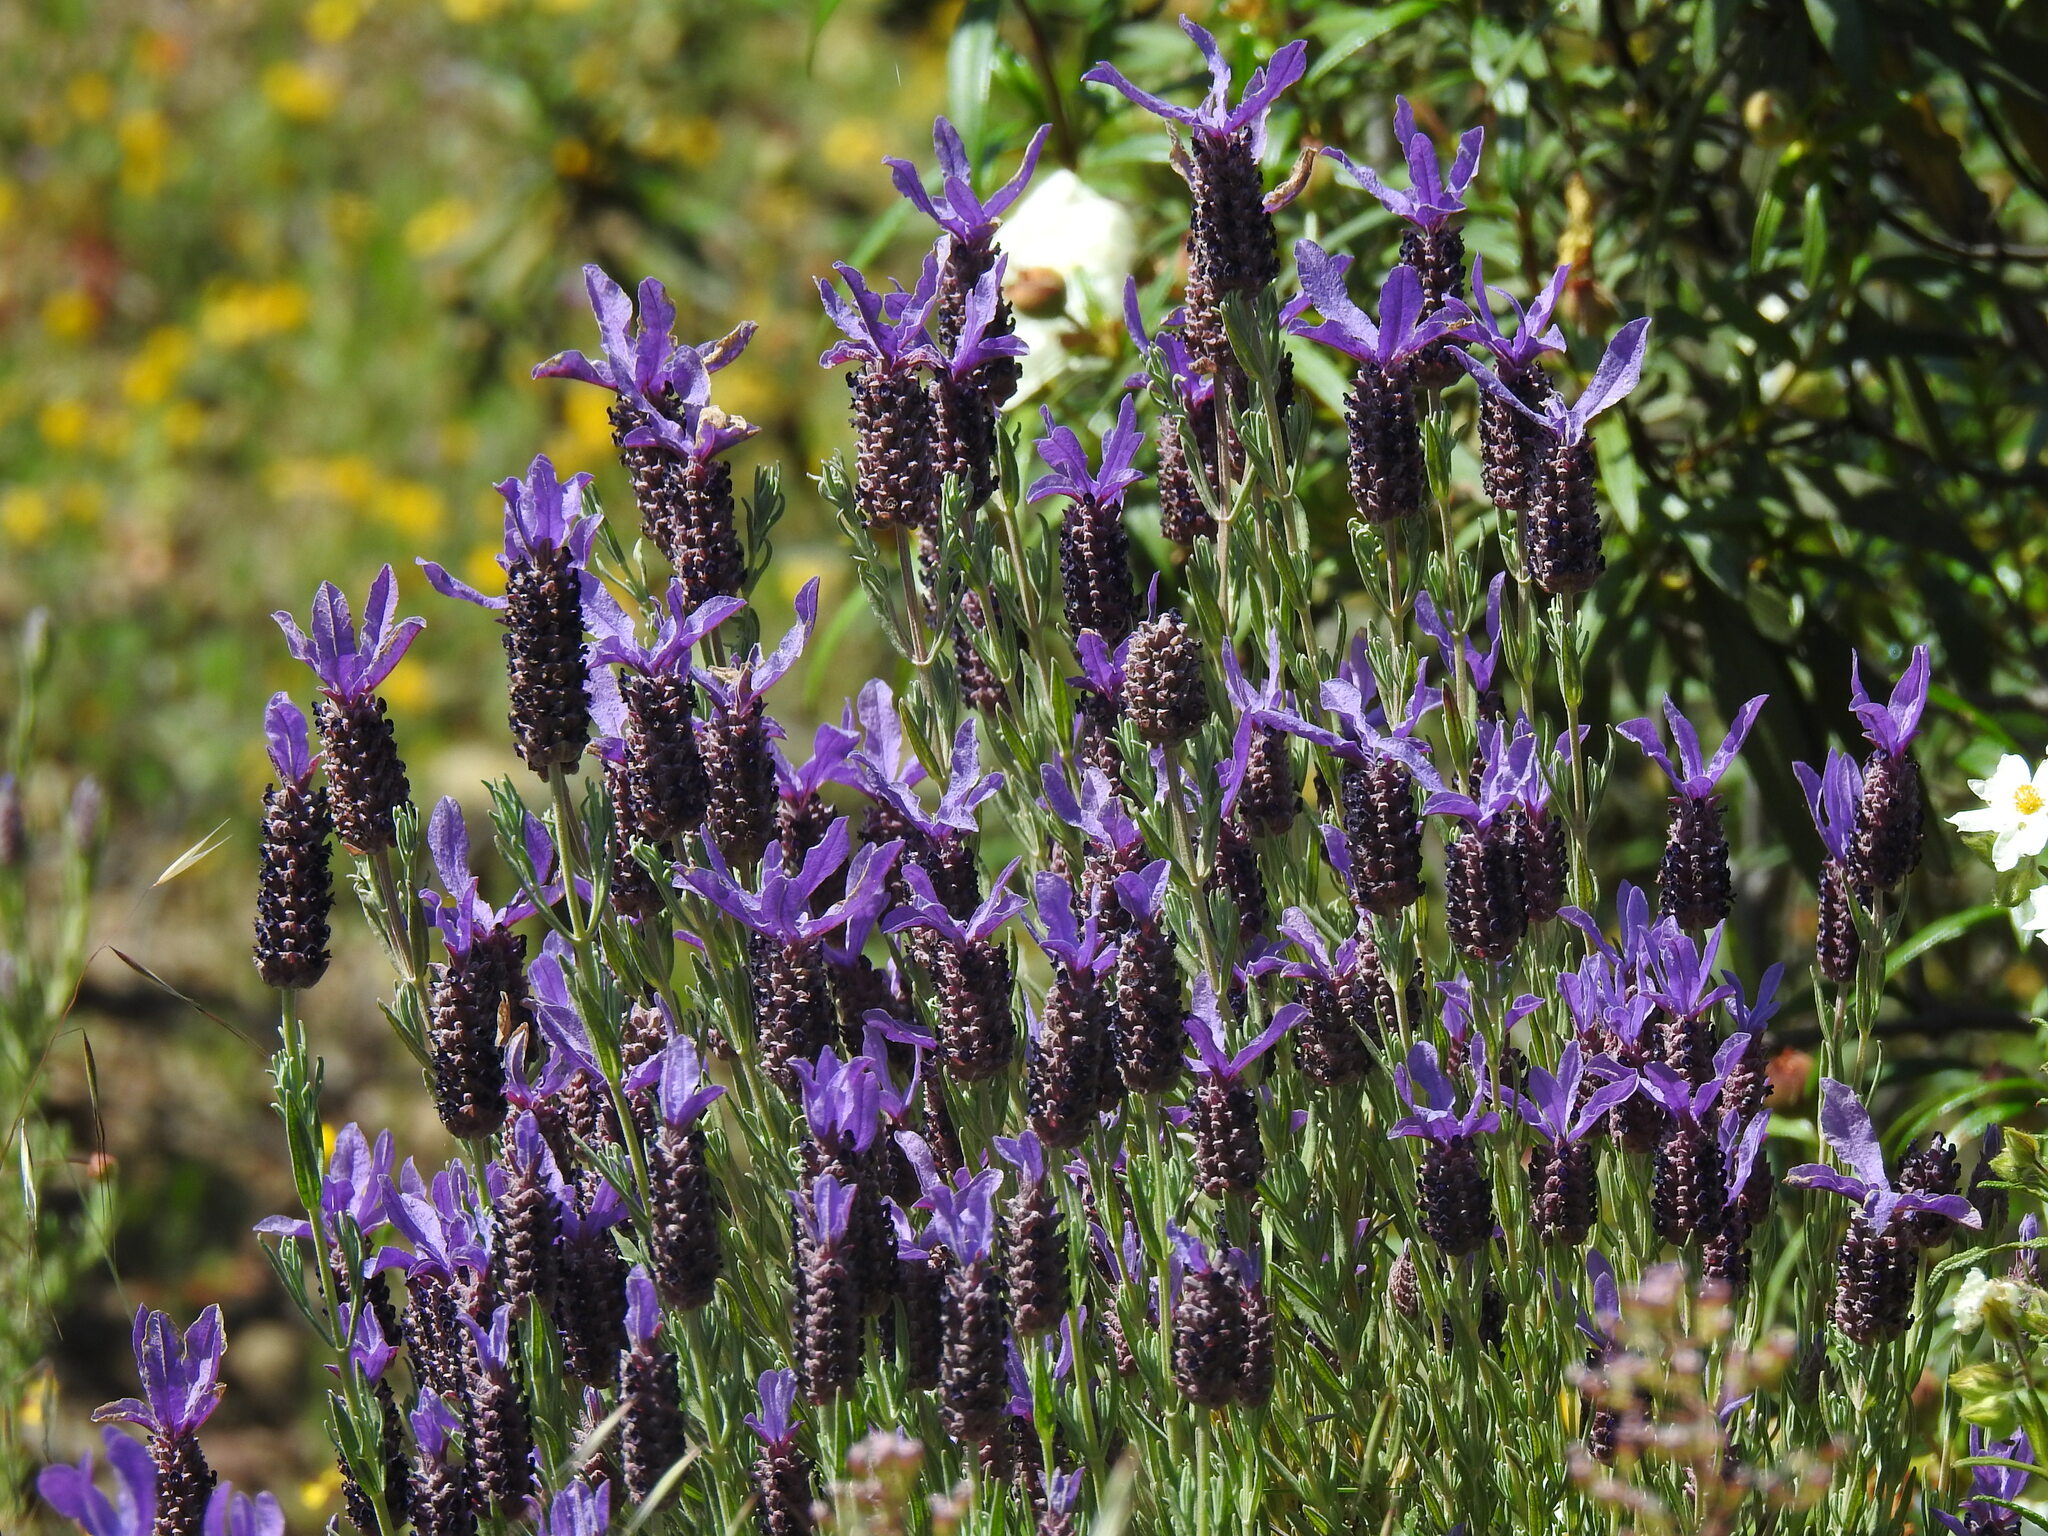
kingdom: Plantae
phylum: Tracheophyta
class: Magnoliopsida
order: Lamiales
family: Lamiaceae
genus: Lavandula
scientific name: Lavandula stoechas
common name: French lavender
